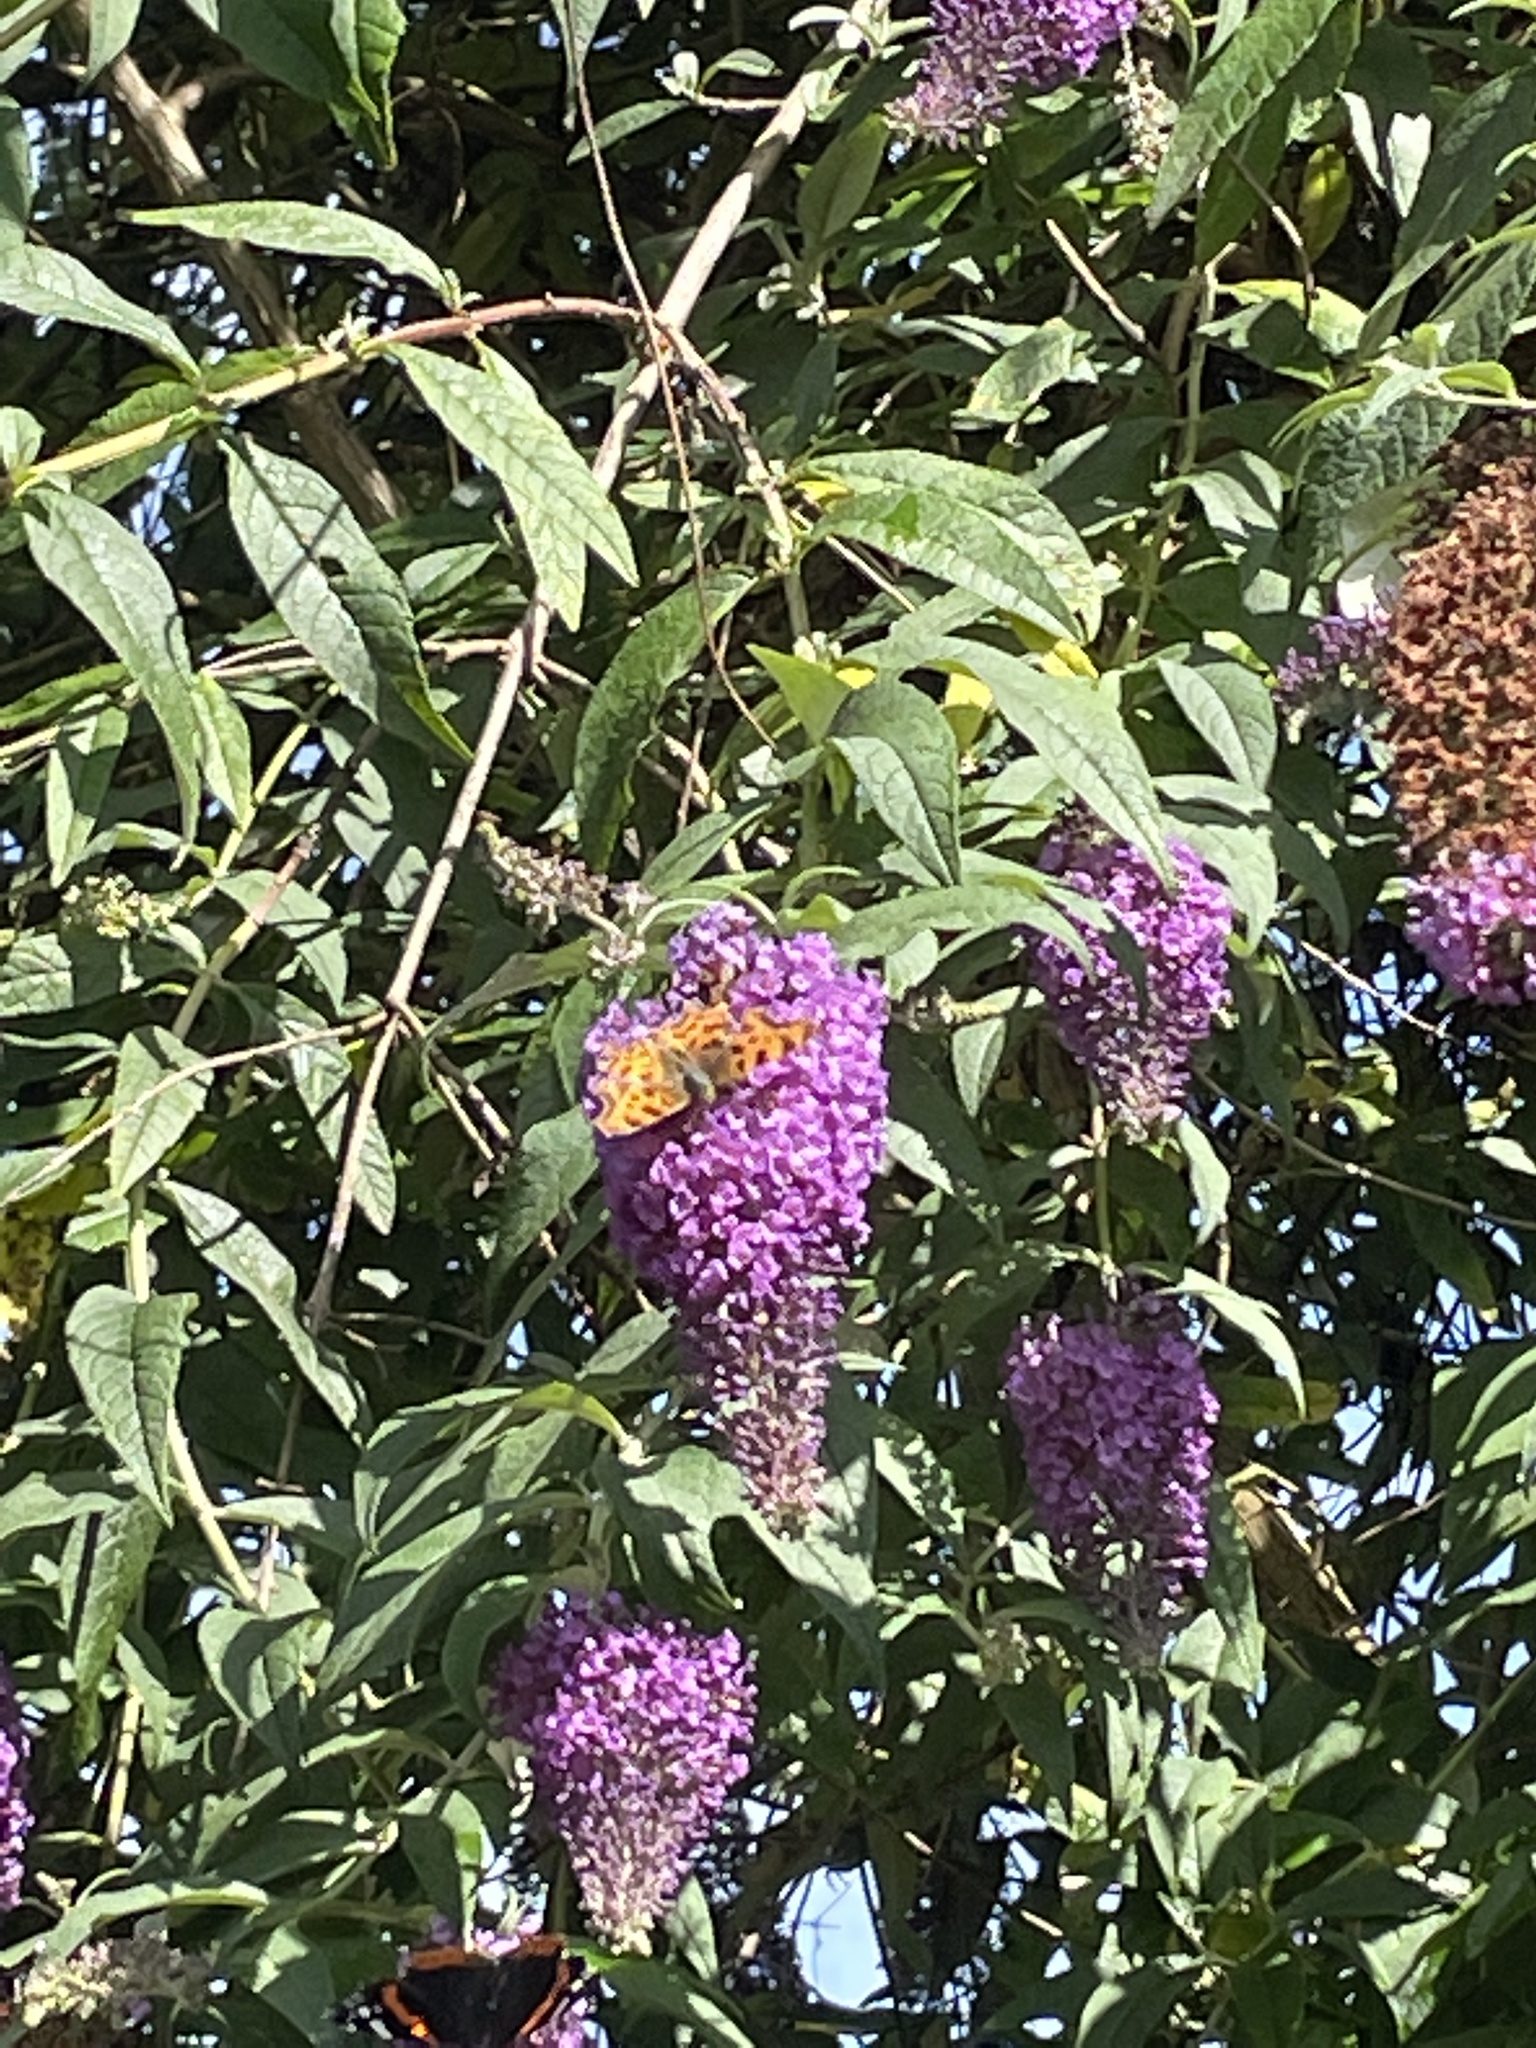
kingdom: Animalia
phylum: Arthropoda
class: Insecta
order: Lepidoptera
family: Nymphalidae
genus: Polygonia
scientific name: Polygonia c-album
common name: Comma
